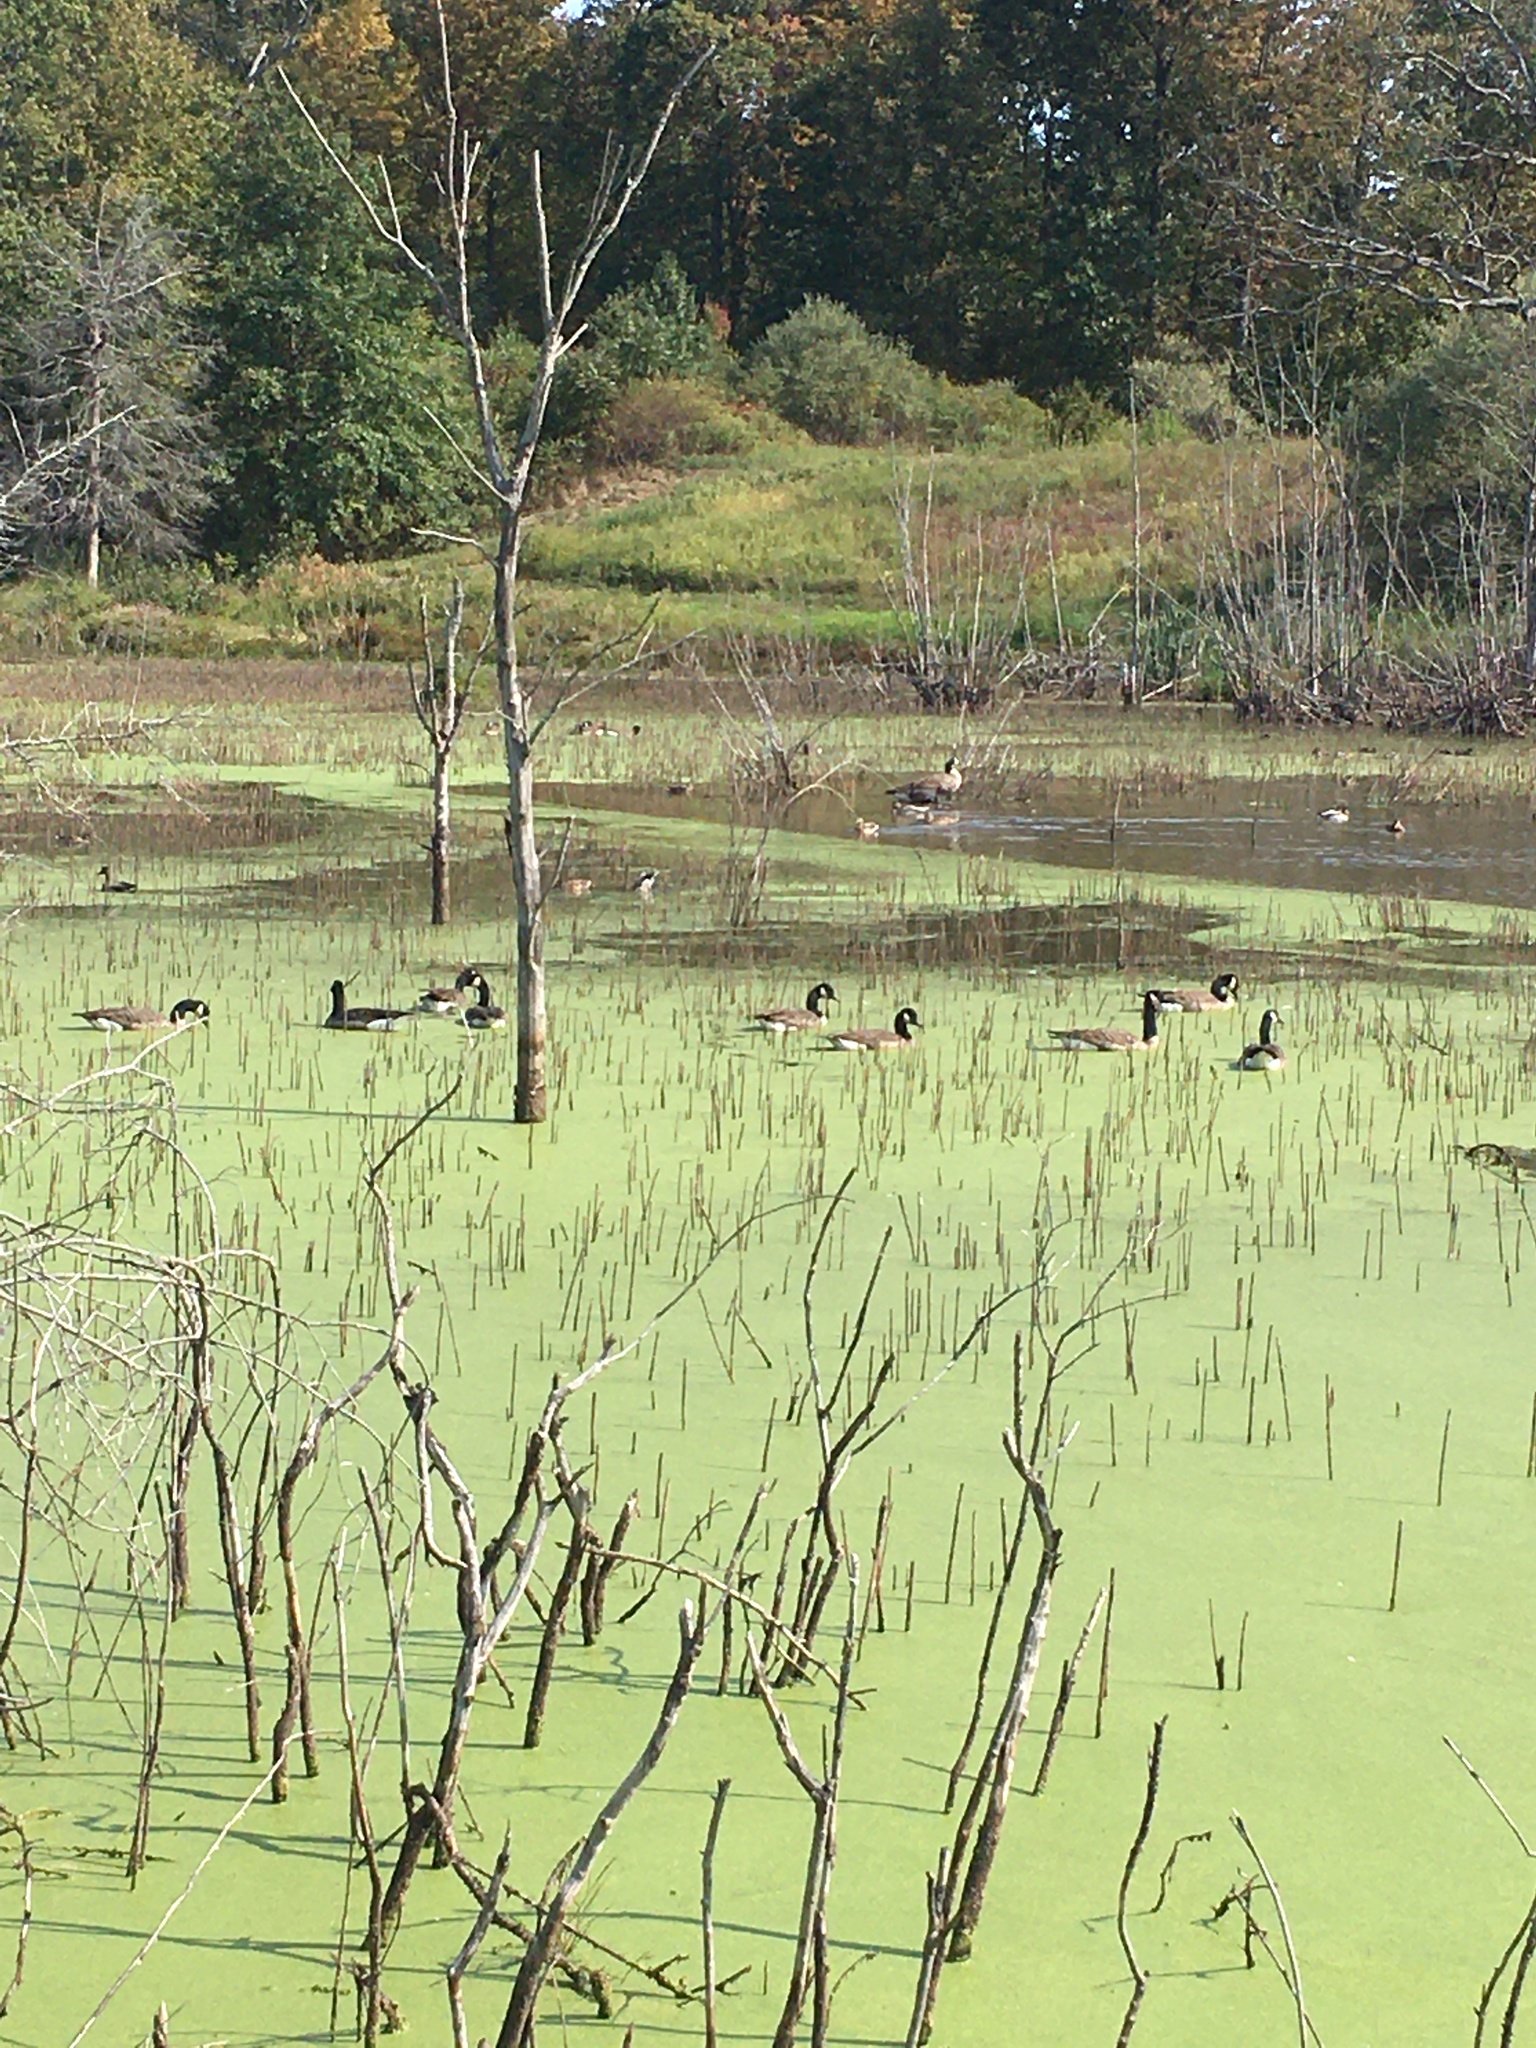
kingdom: Animalia
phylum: Chordata
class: Aves
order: Anseriformes
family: Anatidae
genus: Branta
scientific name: Branta canadensis
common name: Canada goose
